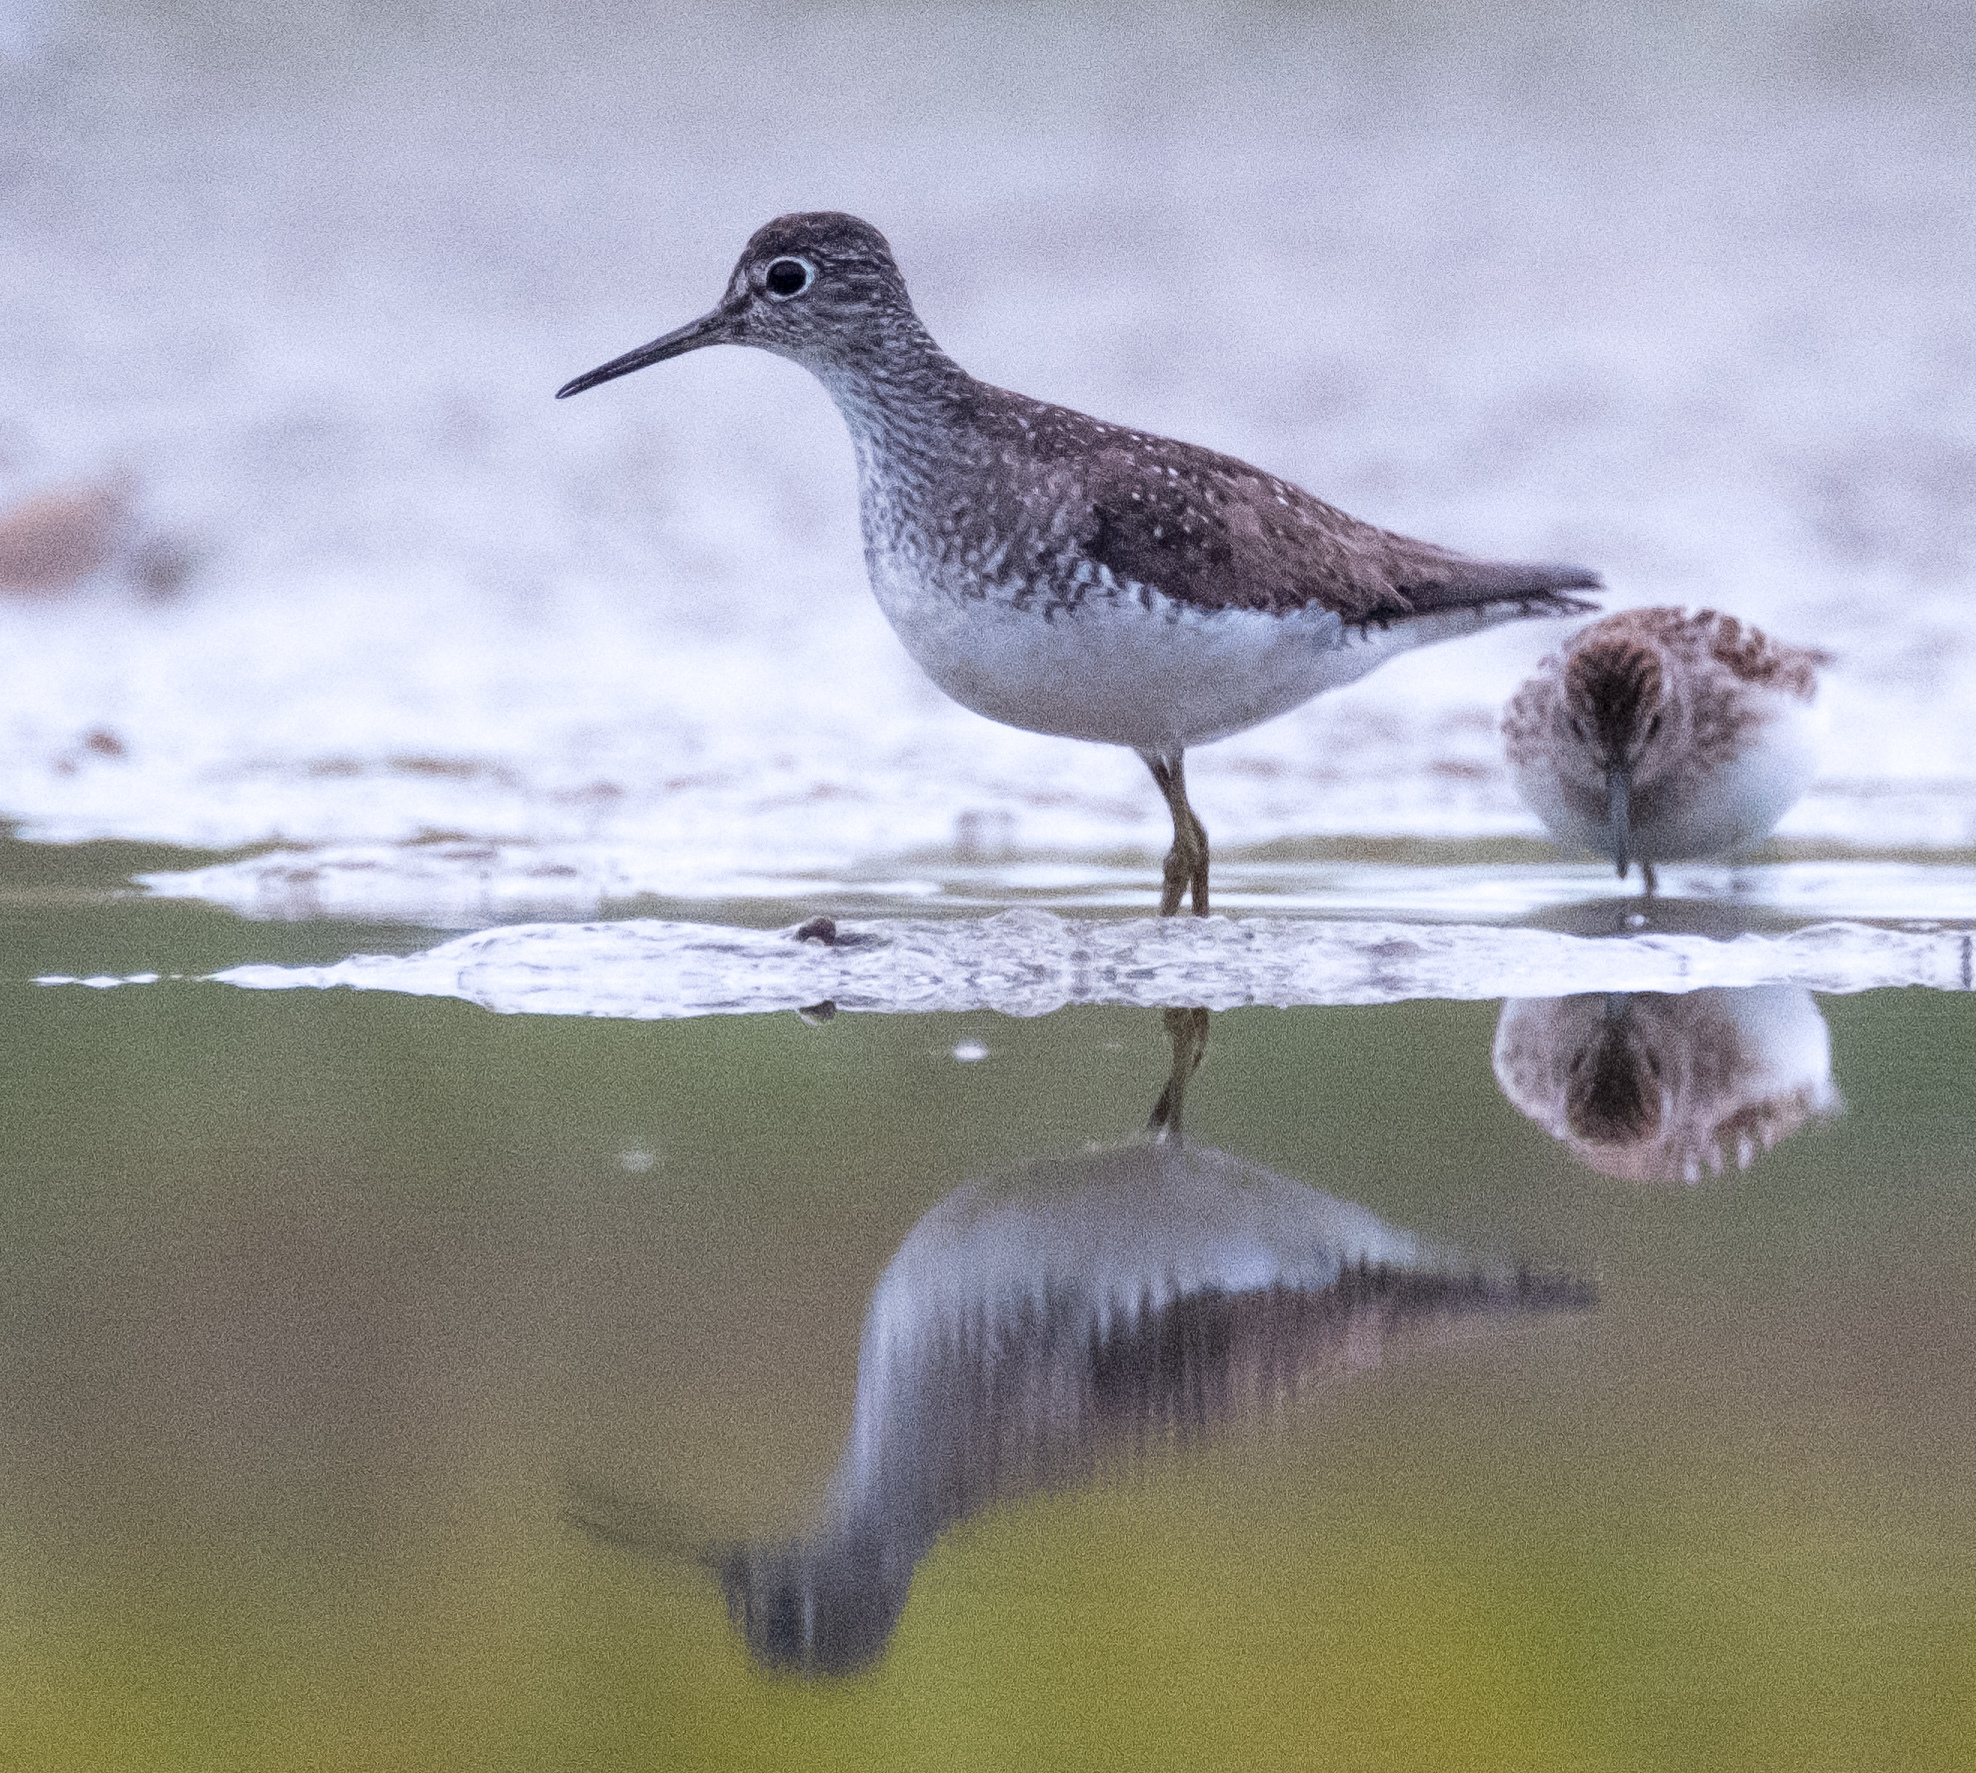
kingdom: Animalia
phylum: Chordata
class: Aves
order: Charadriiformes
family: Scolopacidae
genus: Tringa
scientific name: Tringa solitaria
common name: Solitary sandpiper
